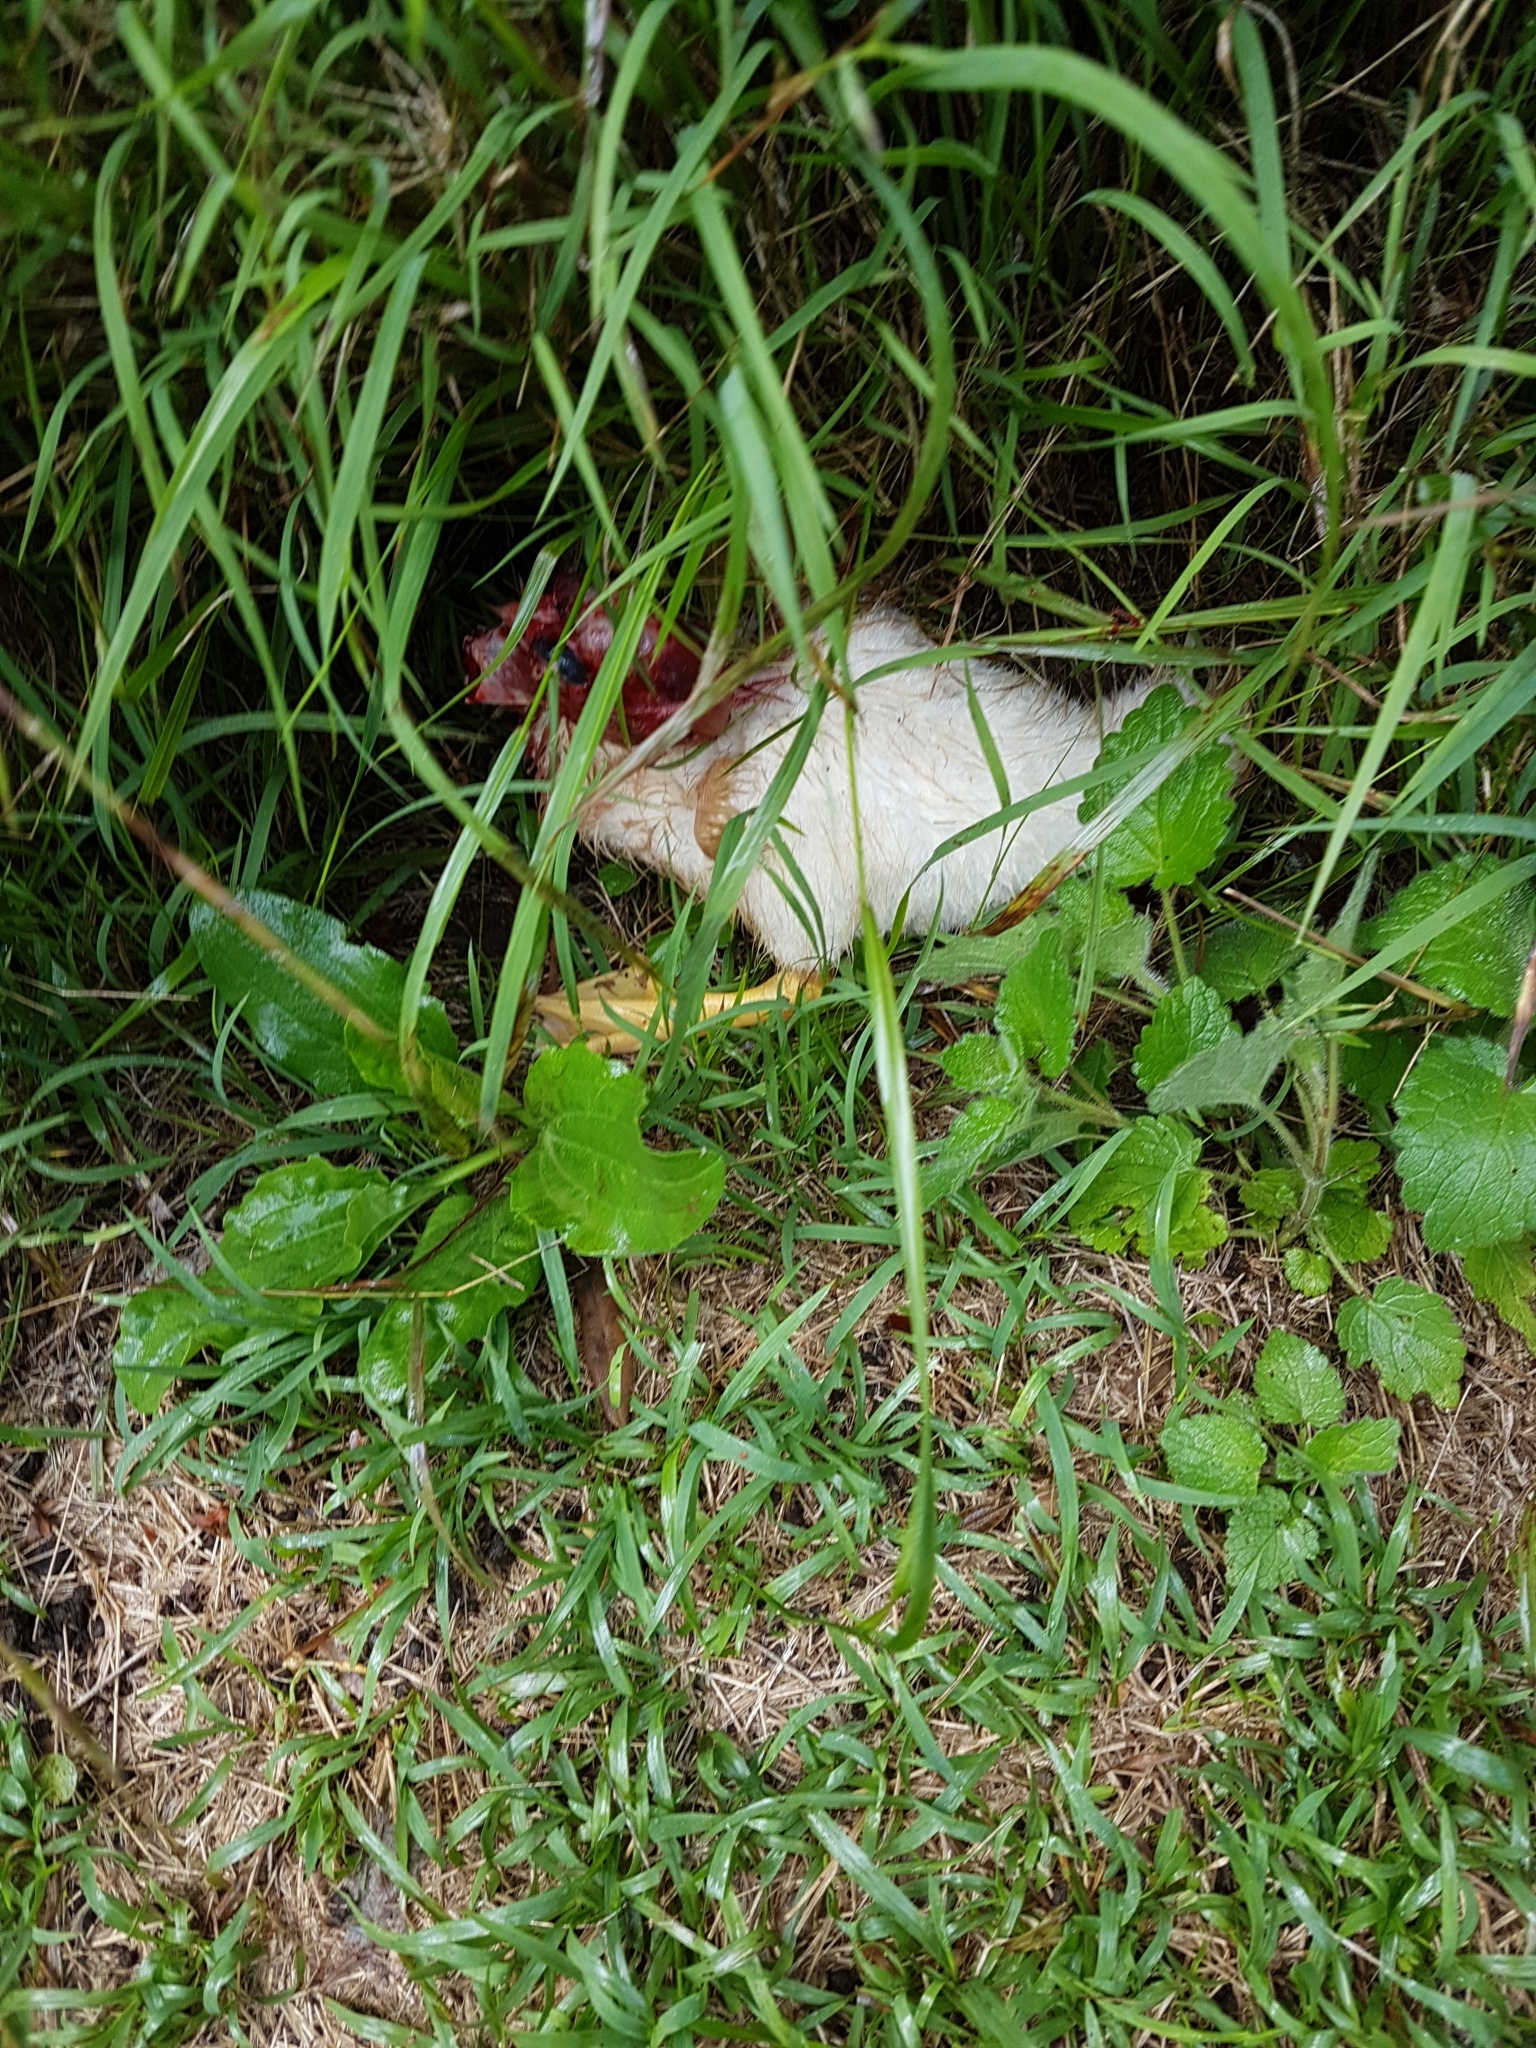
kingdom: Animalia
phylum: Chordata
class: Aves
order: Anseriformes
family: Anatidae
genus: Cairina
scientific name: Cairina moschata
